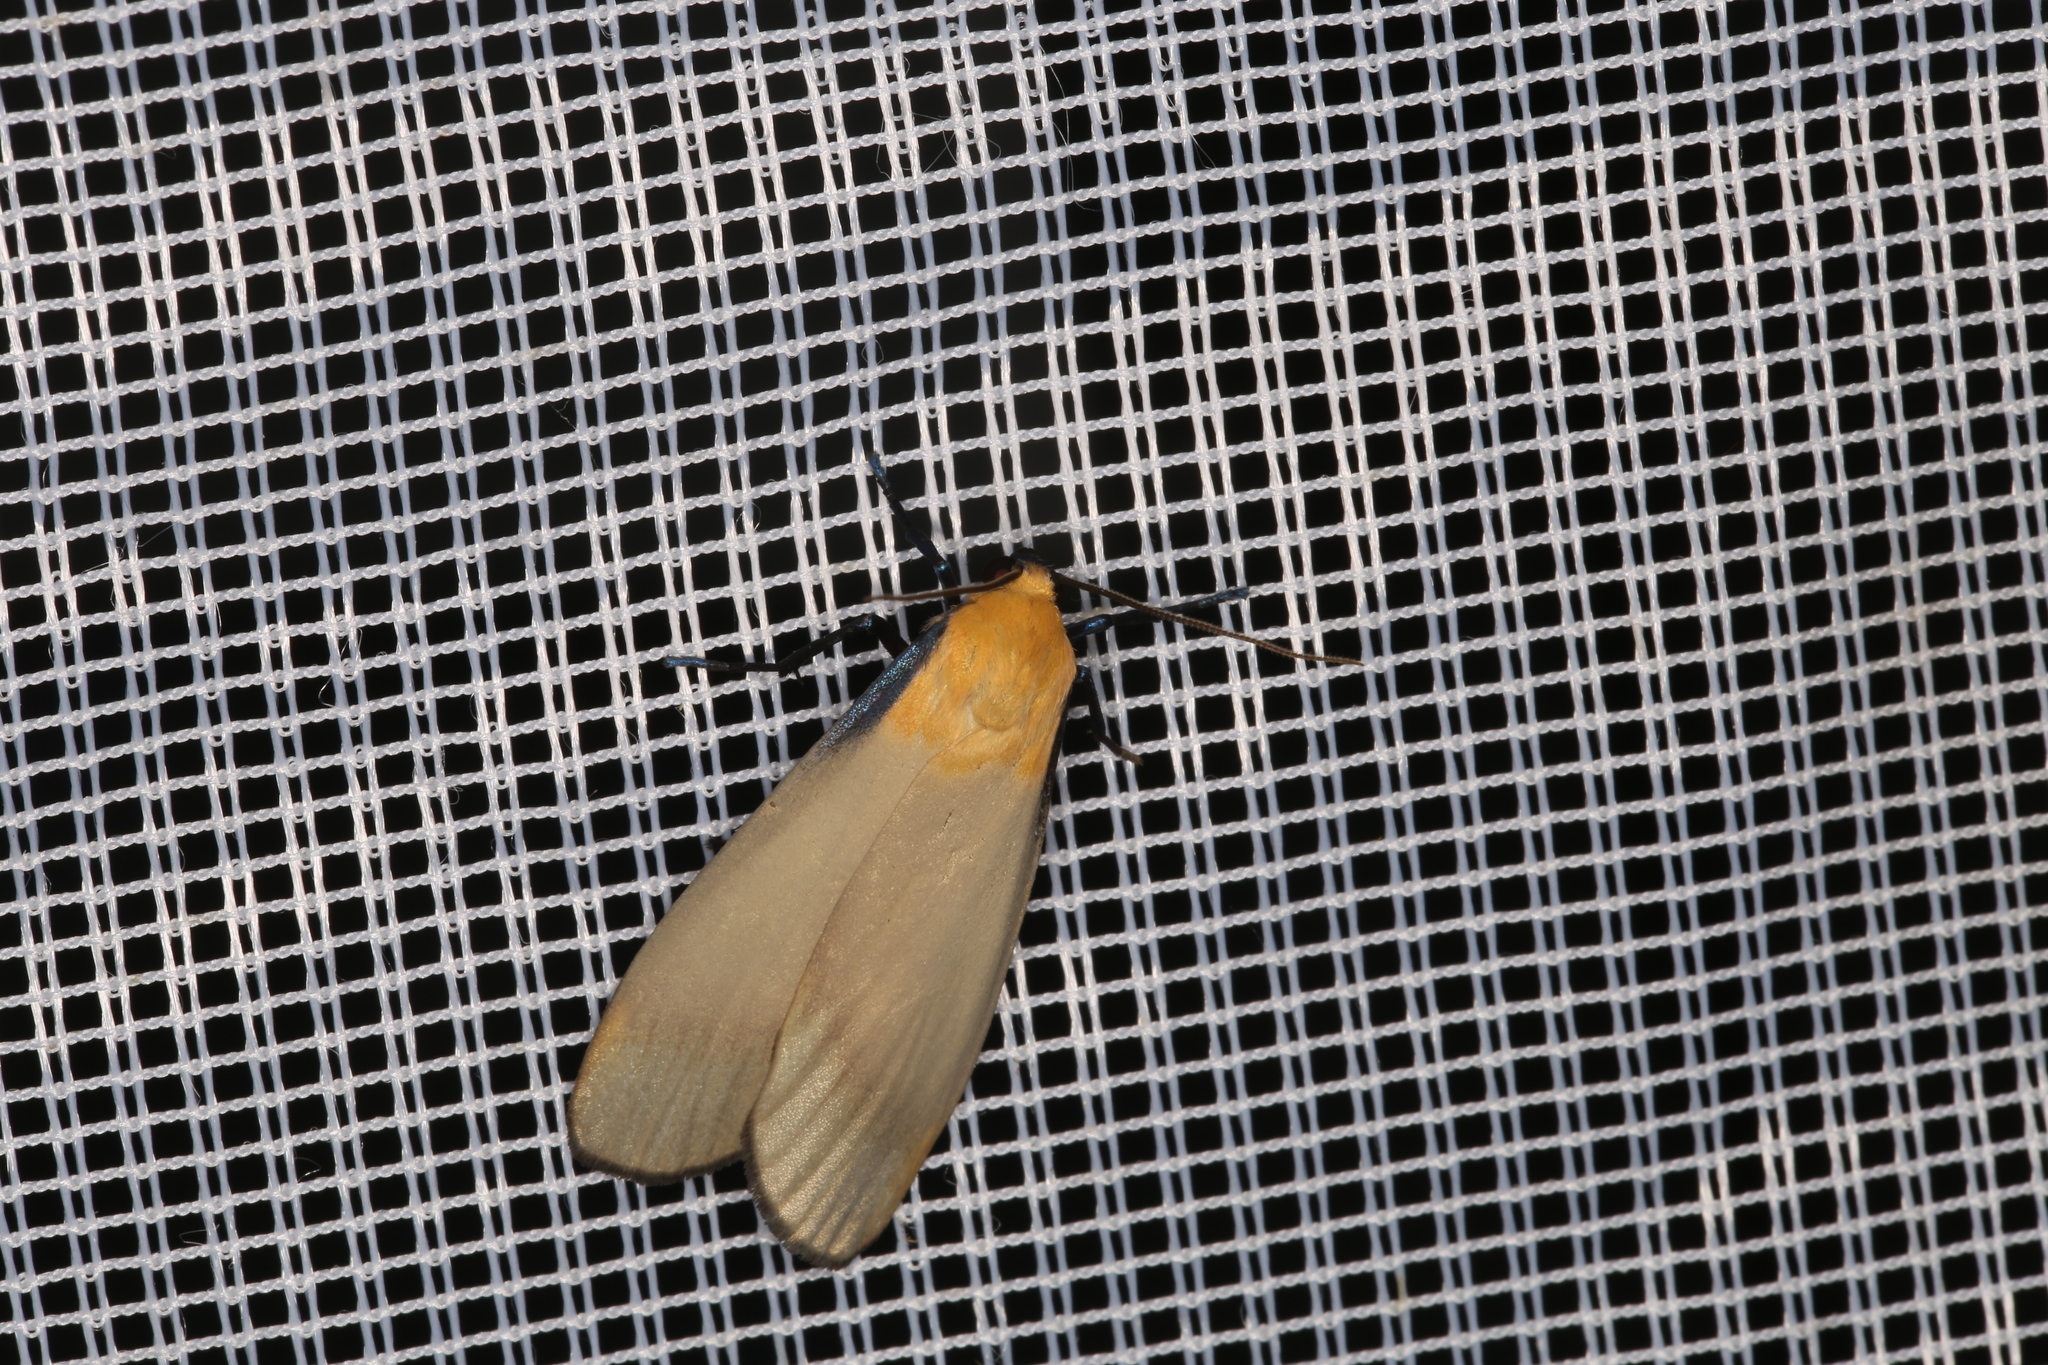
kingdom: Animalia
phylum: Arthropoda
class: Insecta
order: Lepidoptera
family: Erebidae
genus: Lithosia
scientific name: Lithosia quadra
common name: Four-spotted footman
